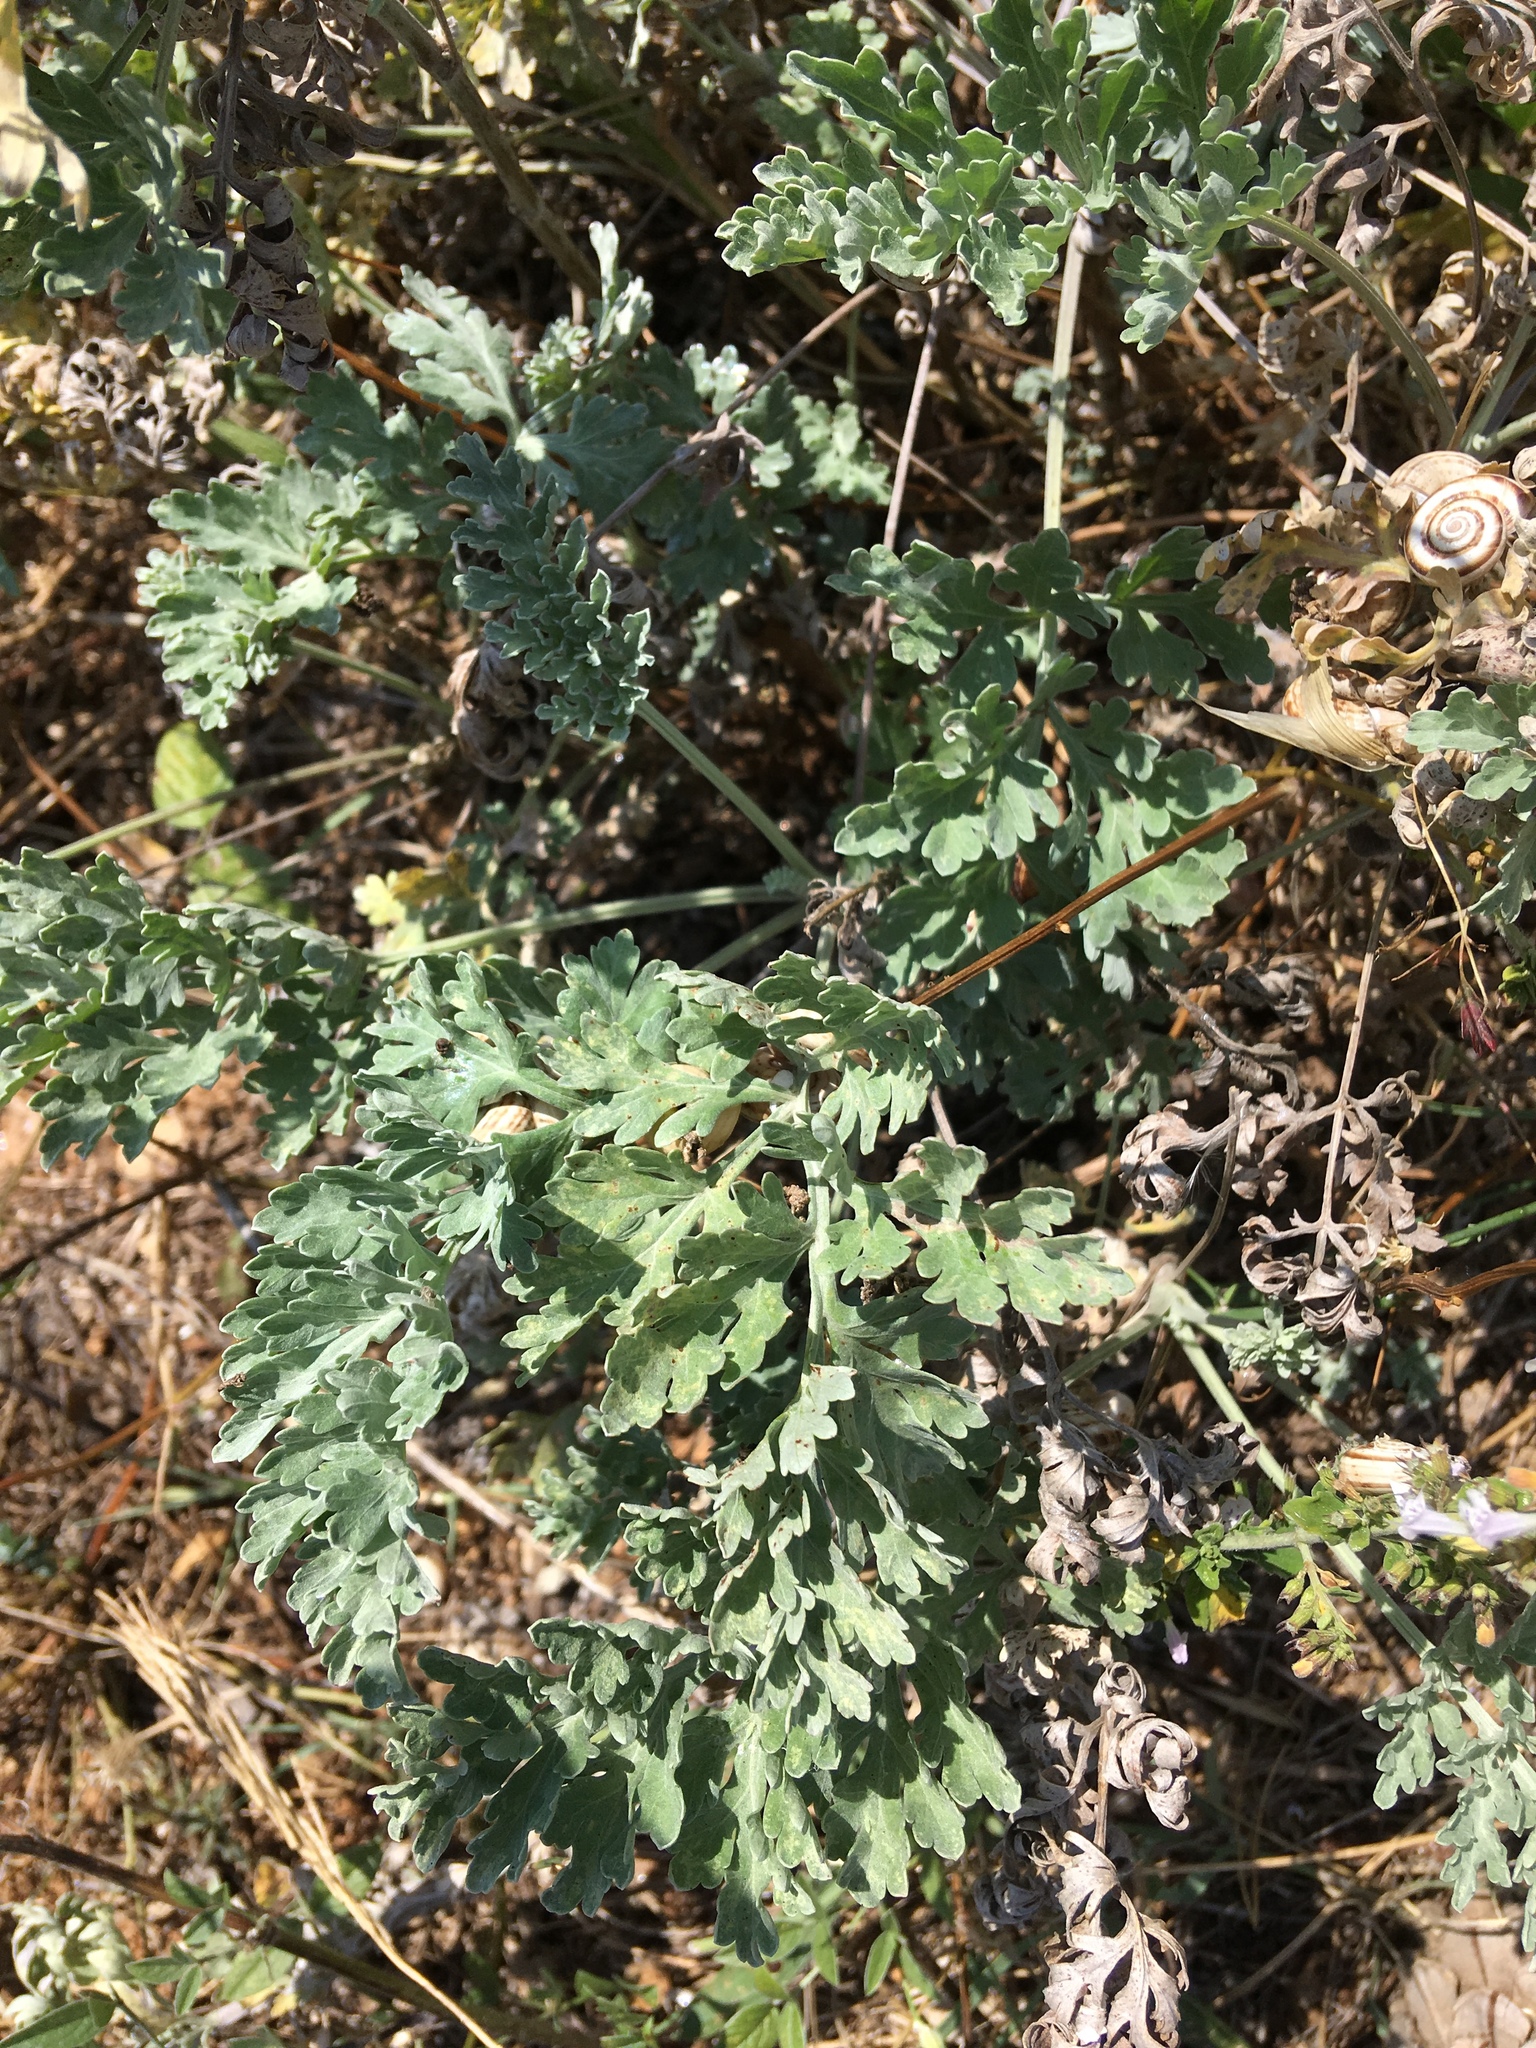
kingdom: Plantae
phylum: Tracheophyta
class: Magnoliopsida
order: Asterales
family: Asteraceae
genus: Artemisia
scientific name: Artemisia absinthium
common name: Wormwood
